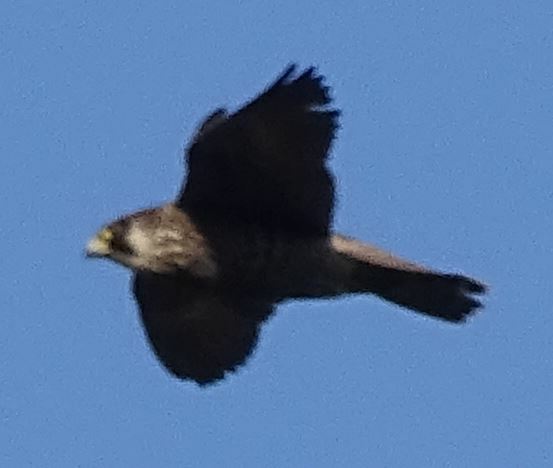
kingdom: Animalia
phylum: Chordata
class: Aves
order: Falconiformes
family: Falconidae
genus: Falco
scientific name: Falco peregrinus
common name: Peregrine falcon
